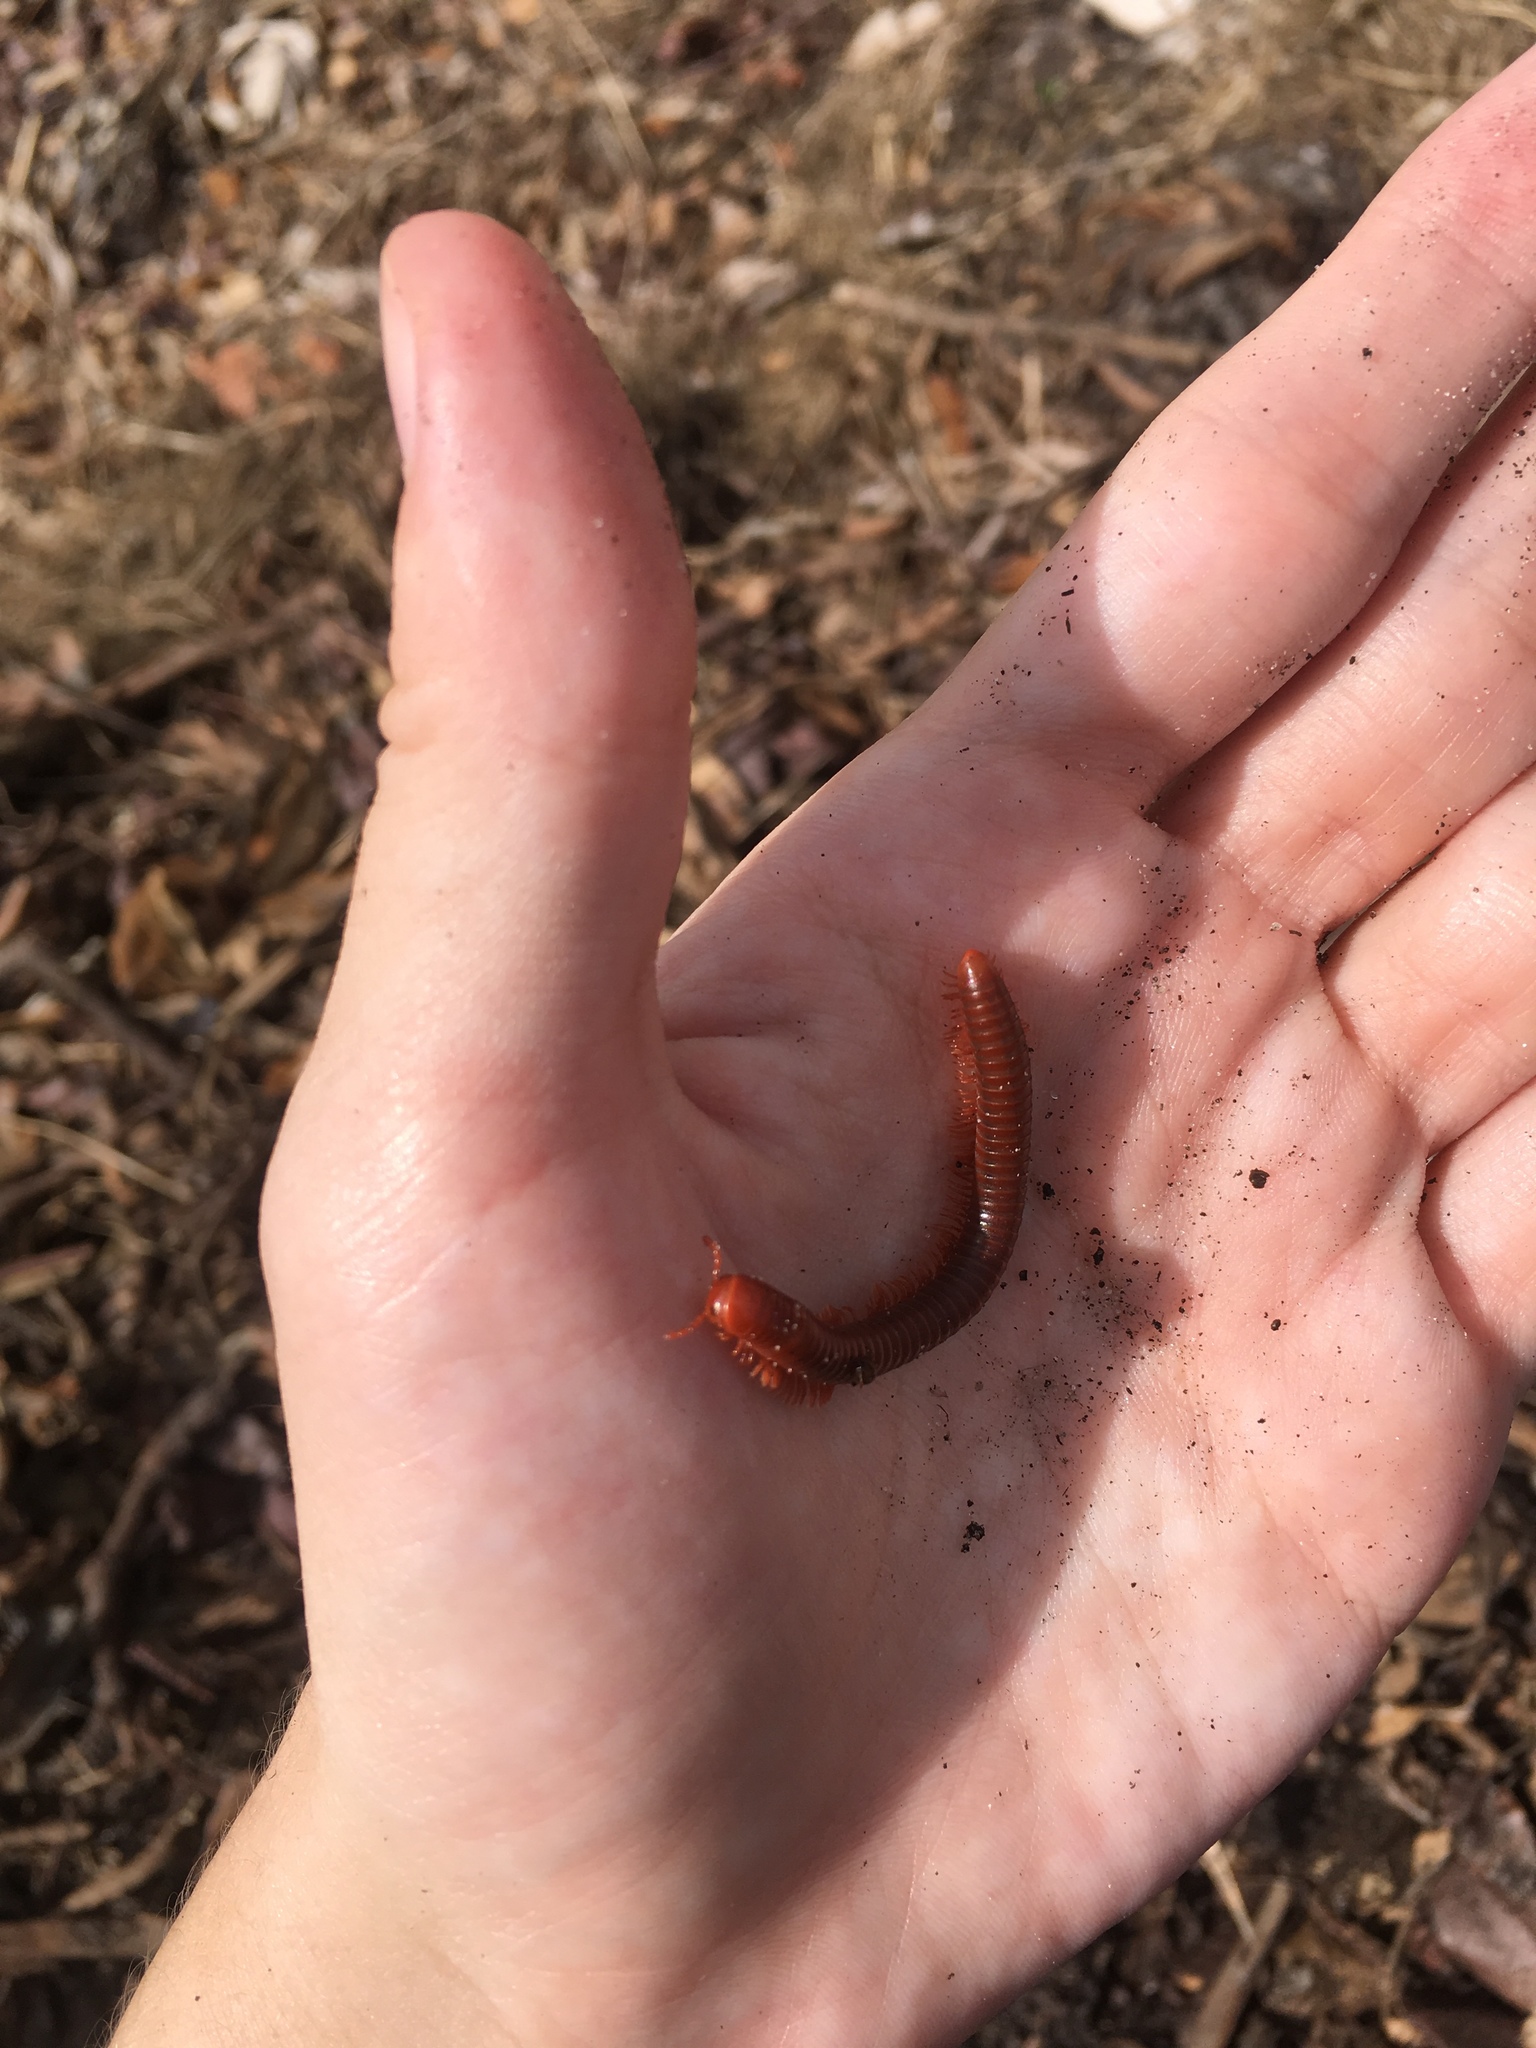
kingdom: Animalia
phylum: Arthropoda
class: Diplopoda
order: Spirobolida
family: Pachybolidae
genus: Trigoniulus
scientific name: Trigoniulus corallinus
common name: Millipede
